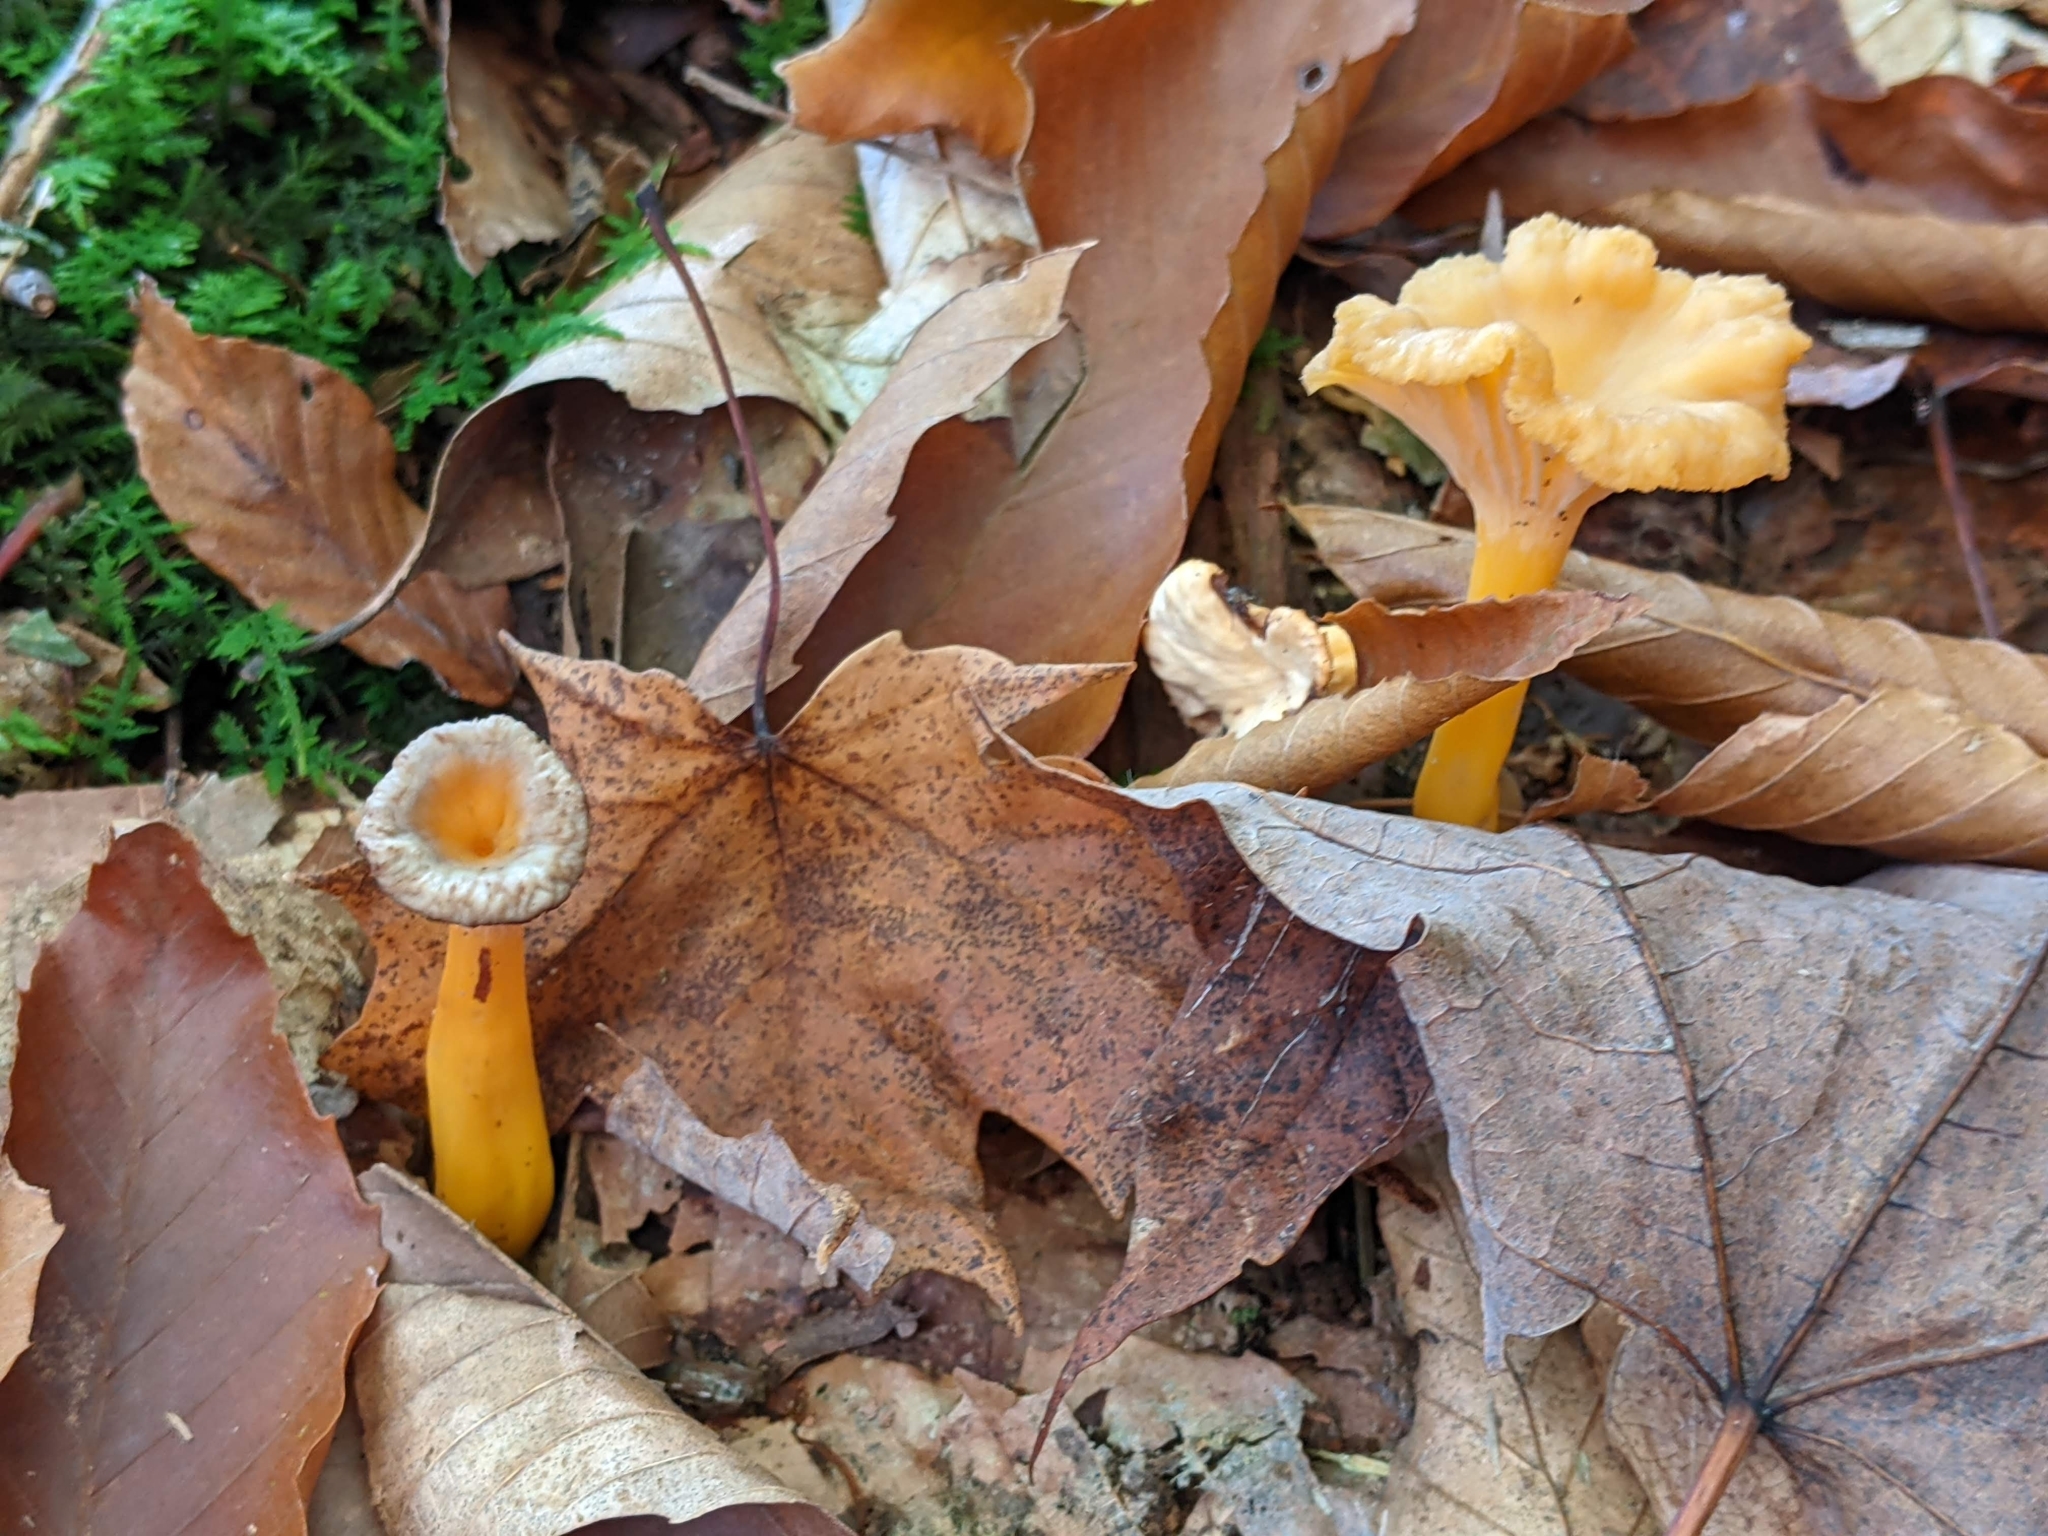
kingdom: Fungi
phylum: Basidiomycota
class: Agaricomycetes
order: Cantharellales
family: Hydnaceae
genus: Craterellus
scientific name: Craterellus tubaeformis
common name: Yellowfoot
